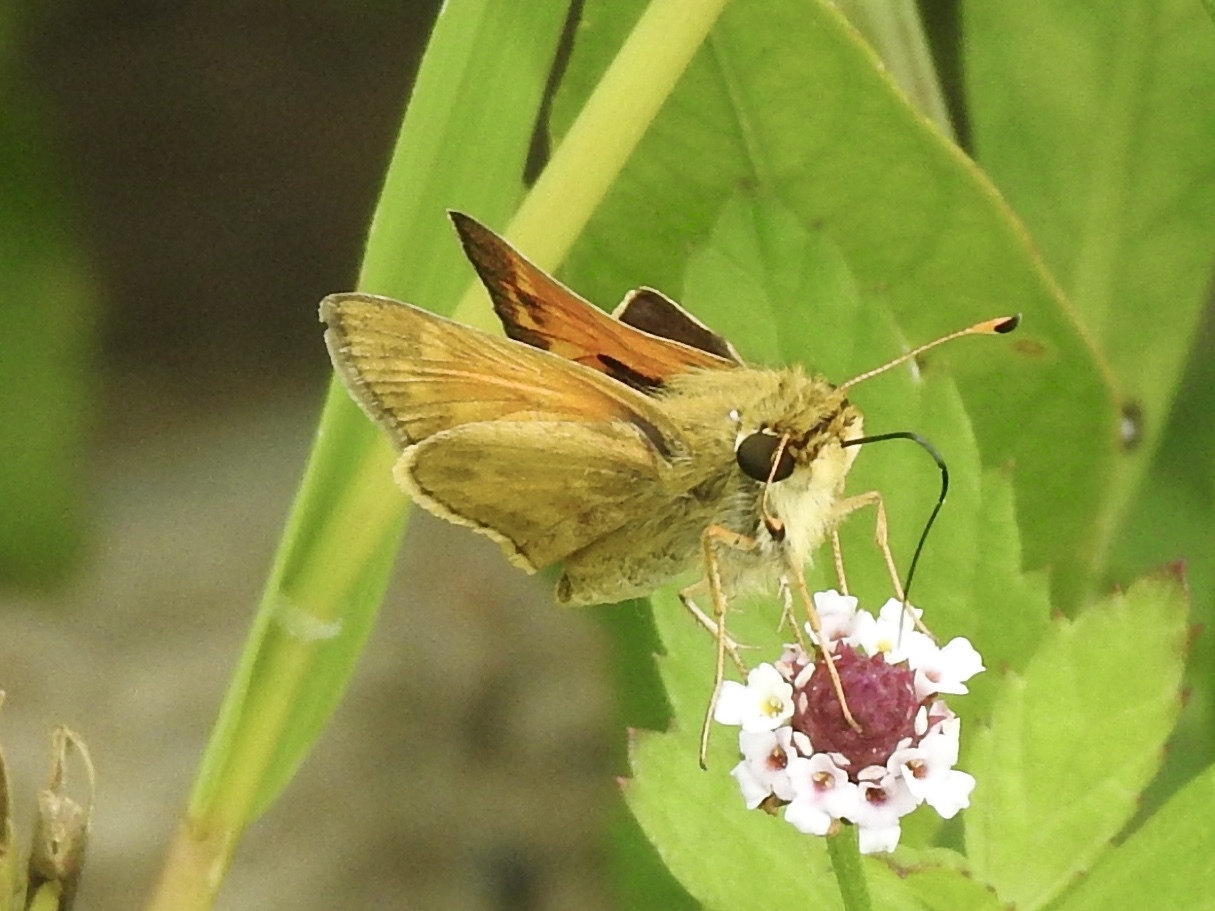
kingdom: Animalia
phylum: Arthropoda
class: Insecta
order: Lepidoptera
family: Hesperiidae
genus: Atalopedes
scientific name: Atalopedes
